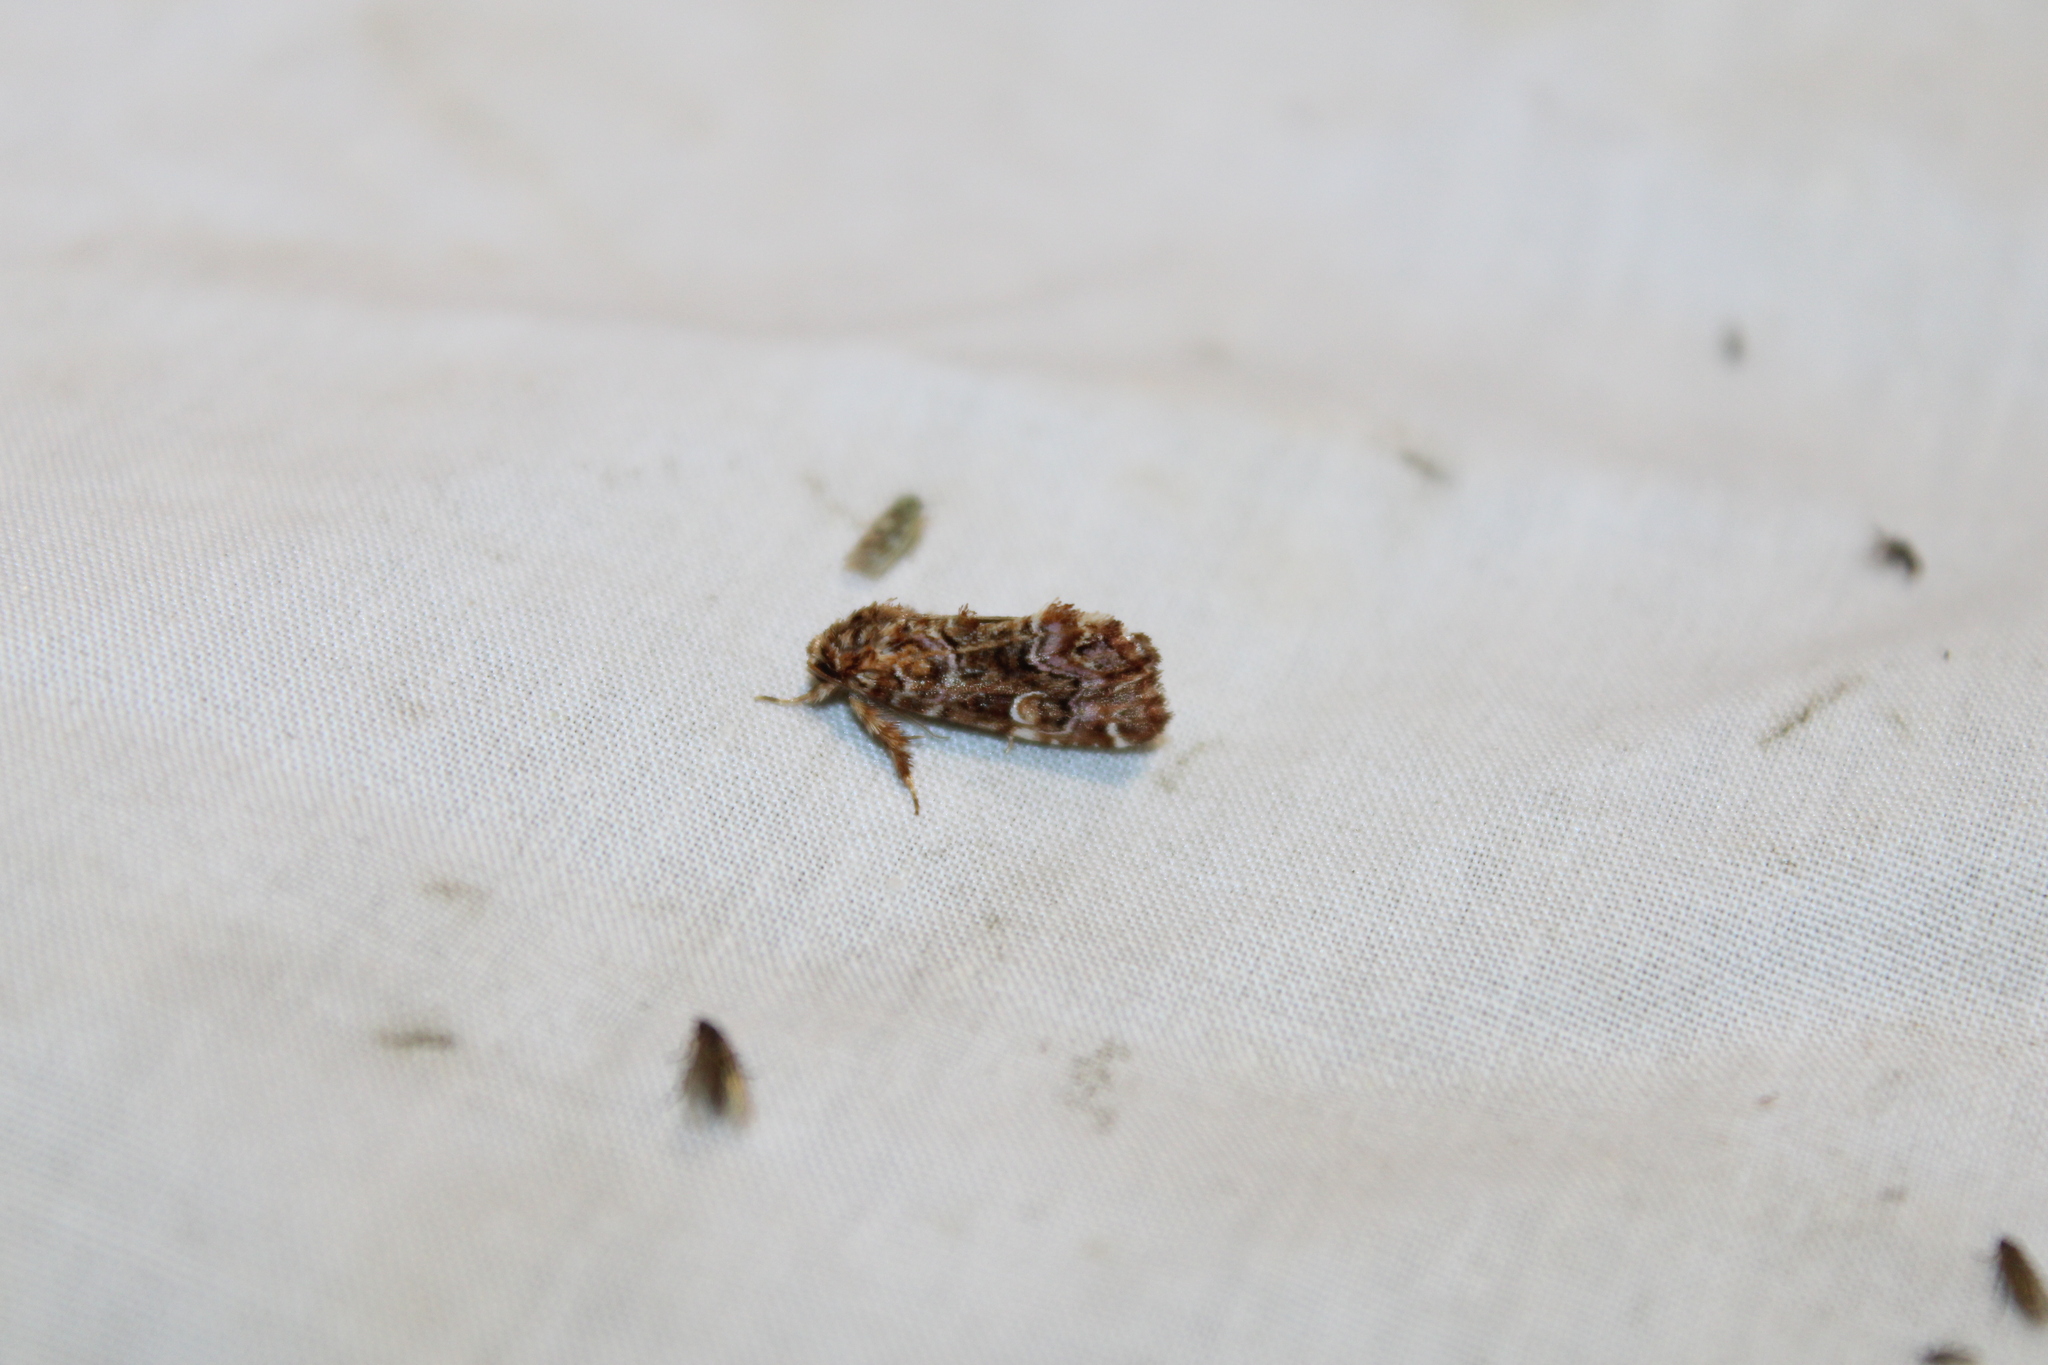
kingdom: Animalia
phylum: Arthropoda
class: Insecta
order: Lepidoptera
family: Noctuidae
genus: Callopistria
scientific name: Callopistria mollissima
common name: Pink-shaded fern moth
